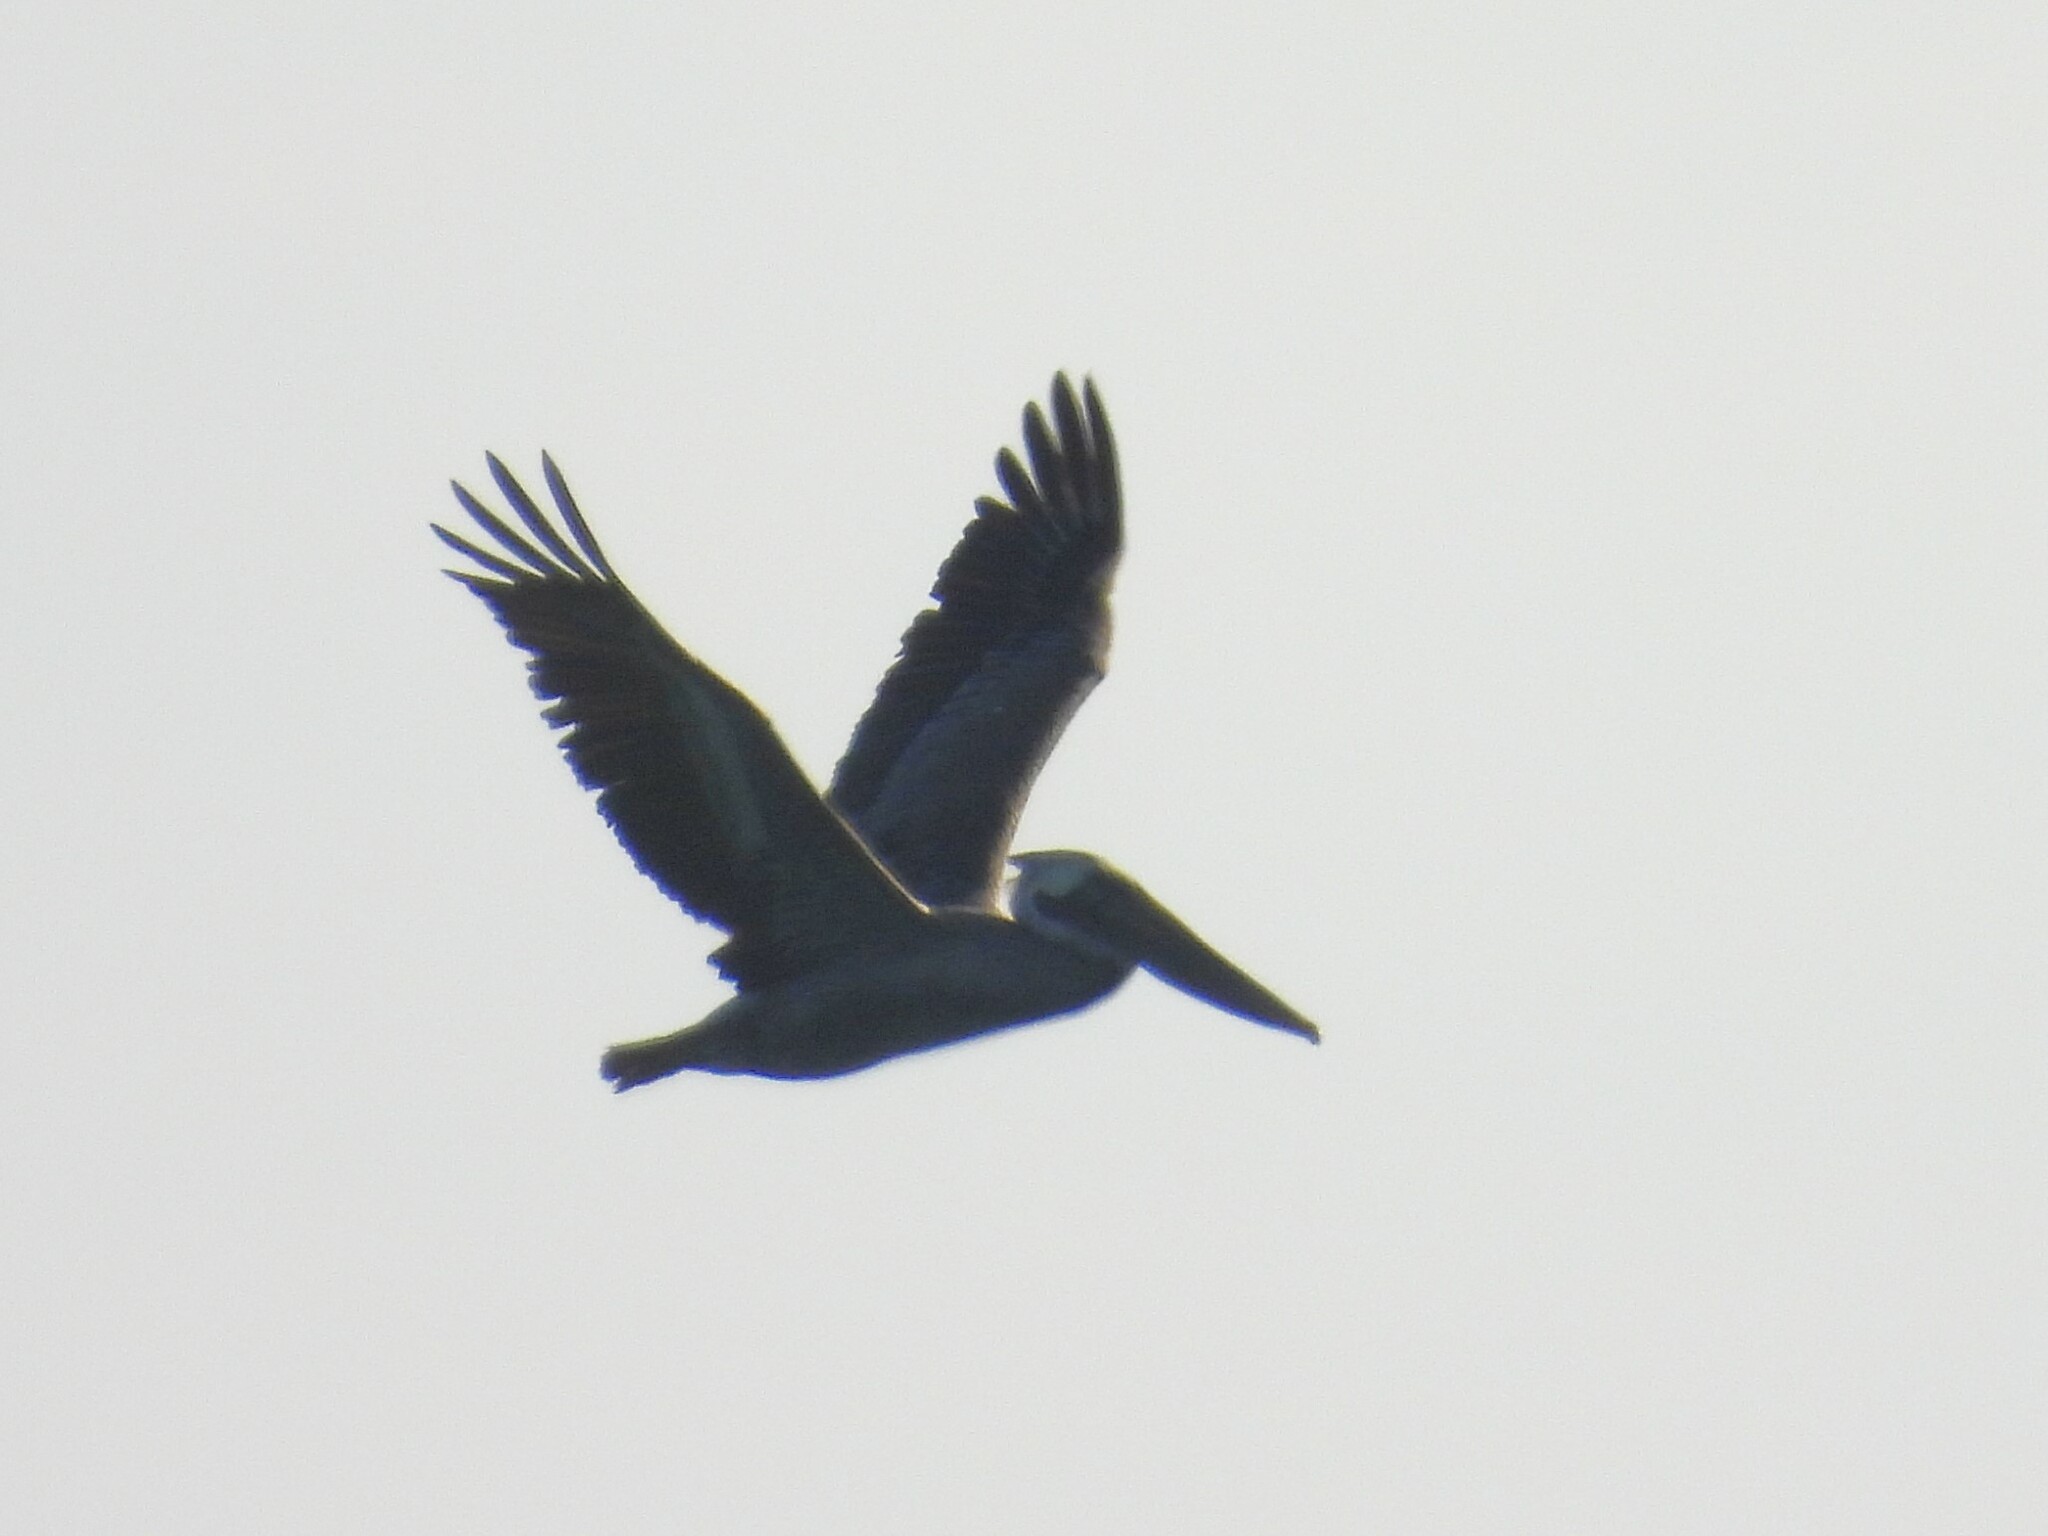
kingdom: Animalia
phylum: Chordata
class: Aves
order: Pelecaniformes
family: Pelecanidae
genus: Pelecanus
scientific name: Pelecanus occidentalis
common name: Brown pelican
